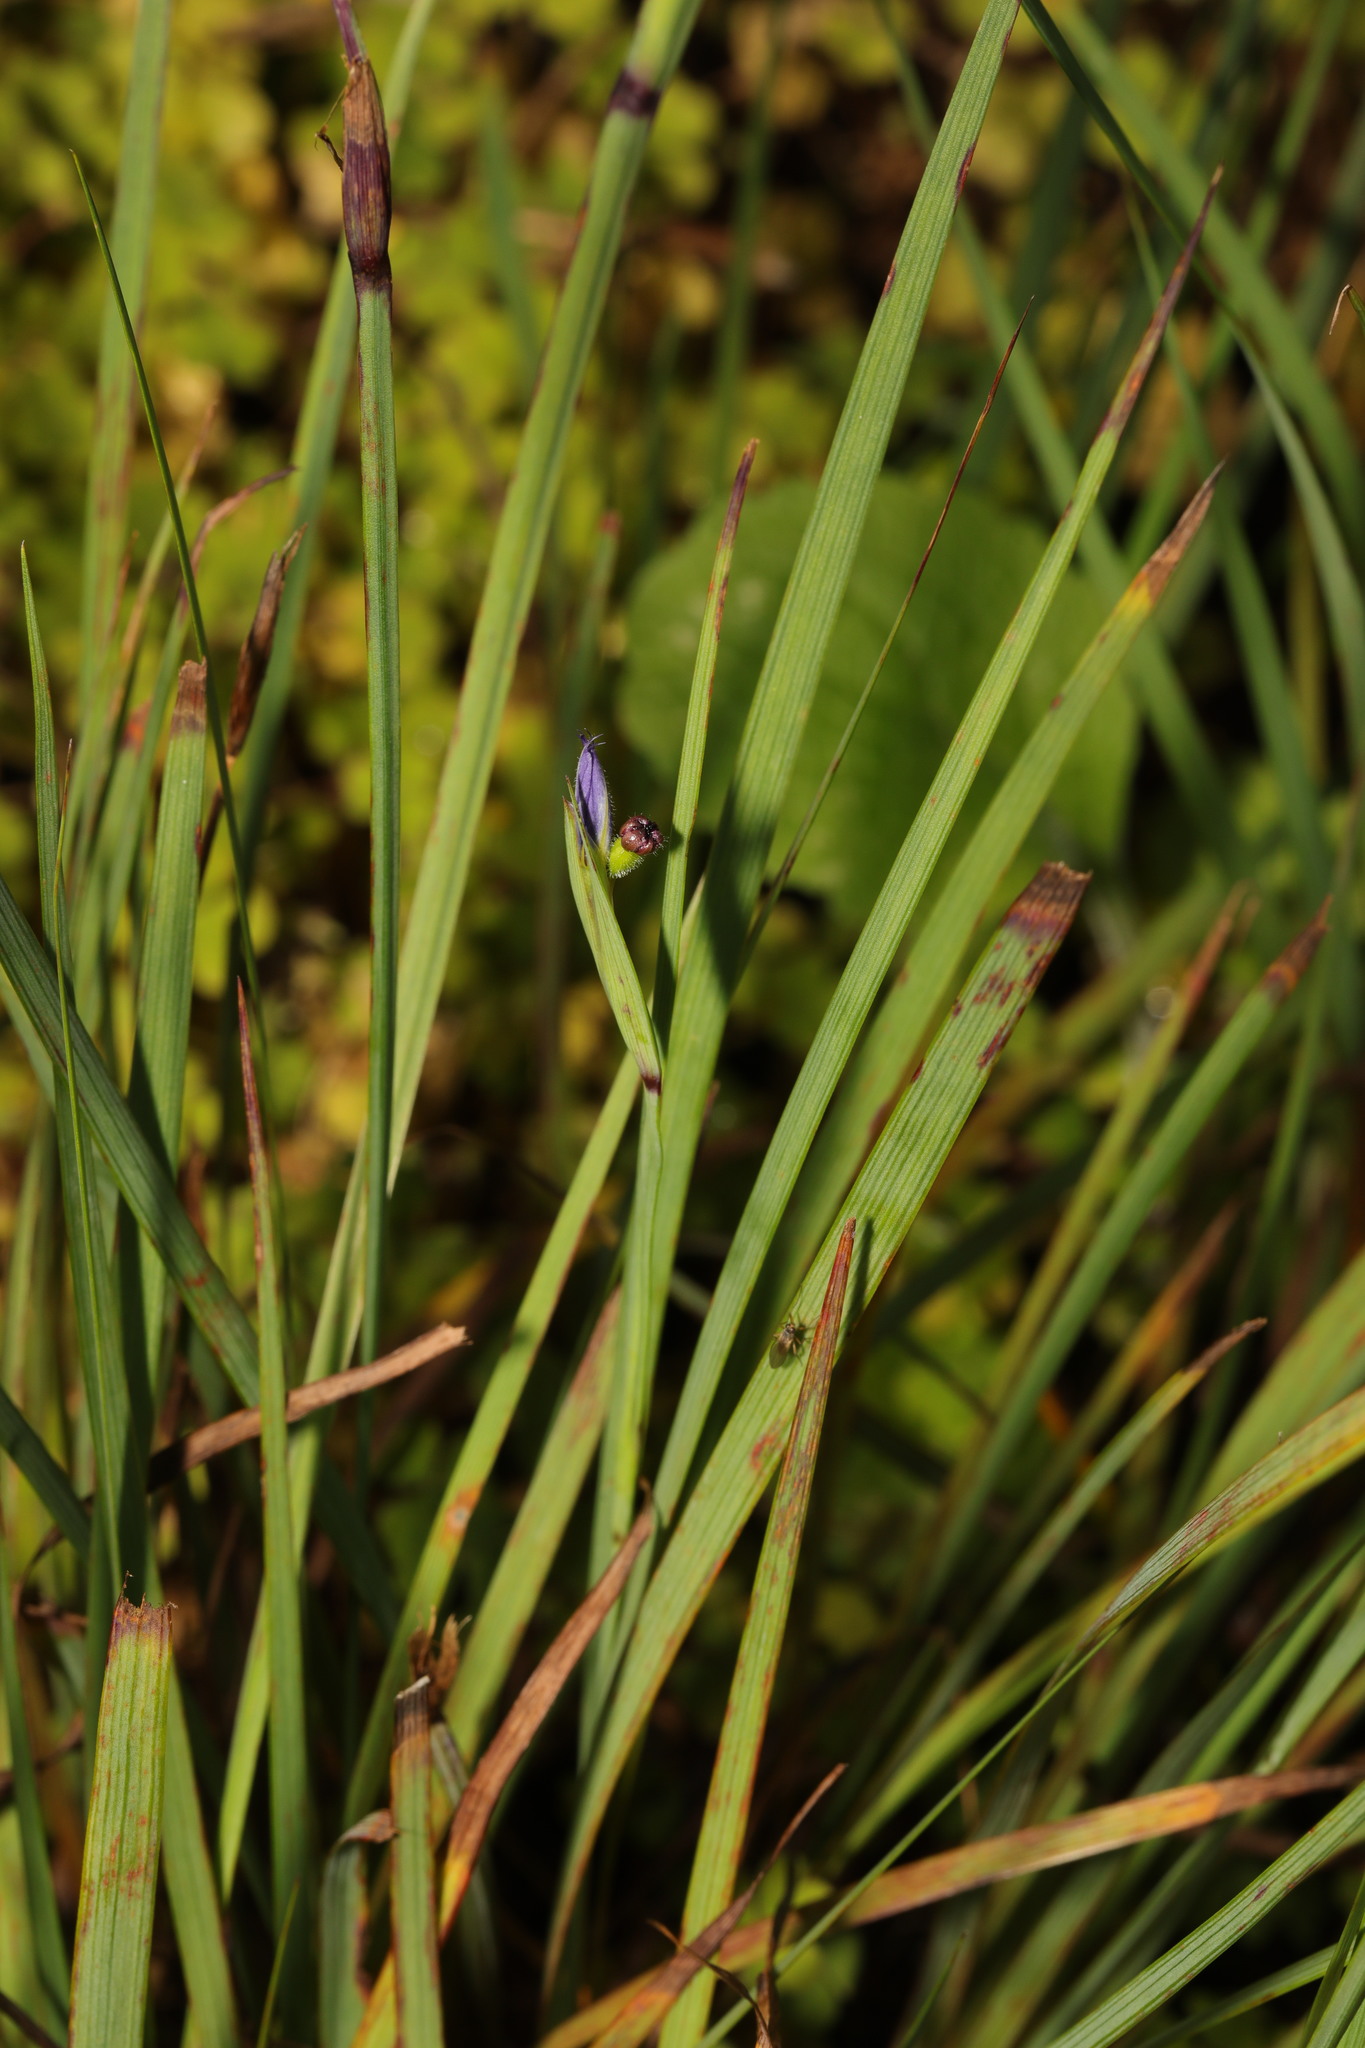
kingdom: Plantae
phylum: Tracheophyta
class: Liliopsida
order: Asparagales
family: Iridaceae
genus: Sisyrinchium
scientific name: Sisyrinchium montanum
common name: American blue-eyed-grass
